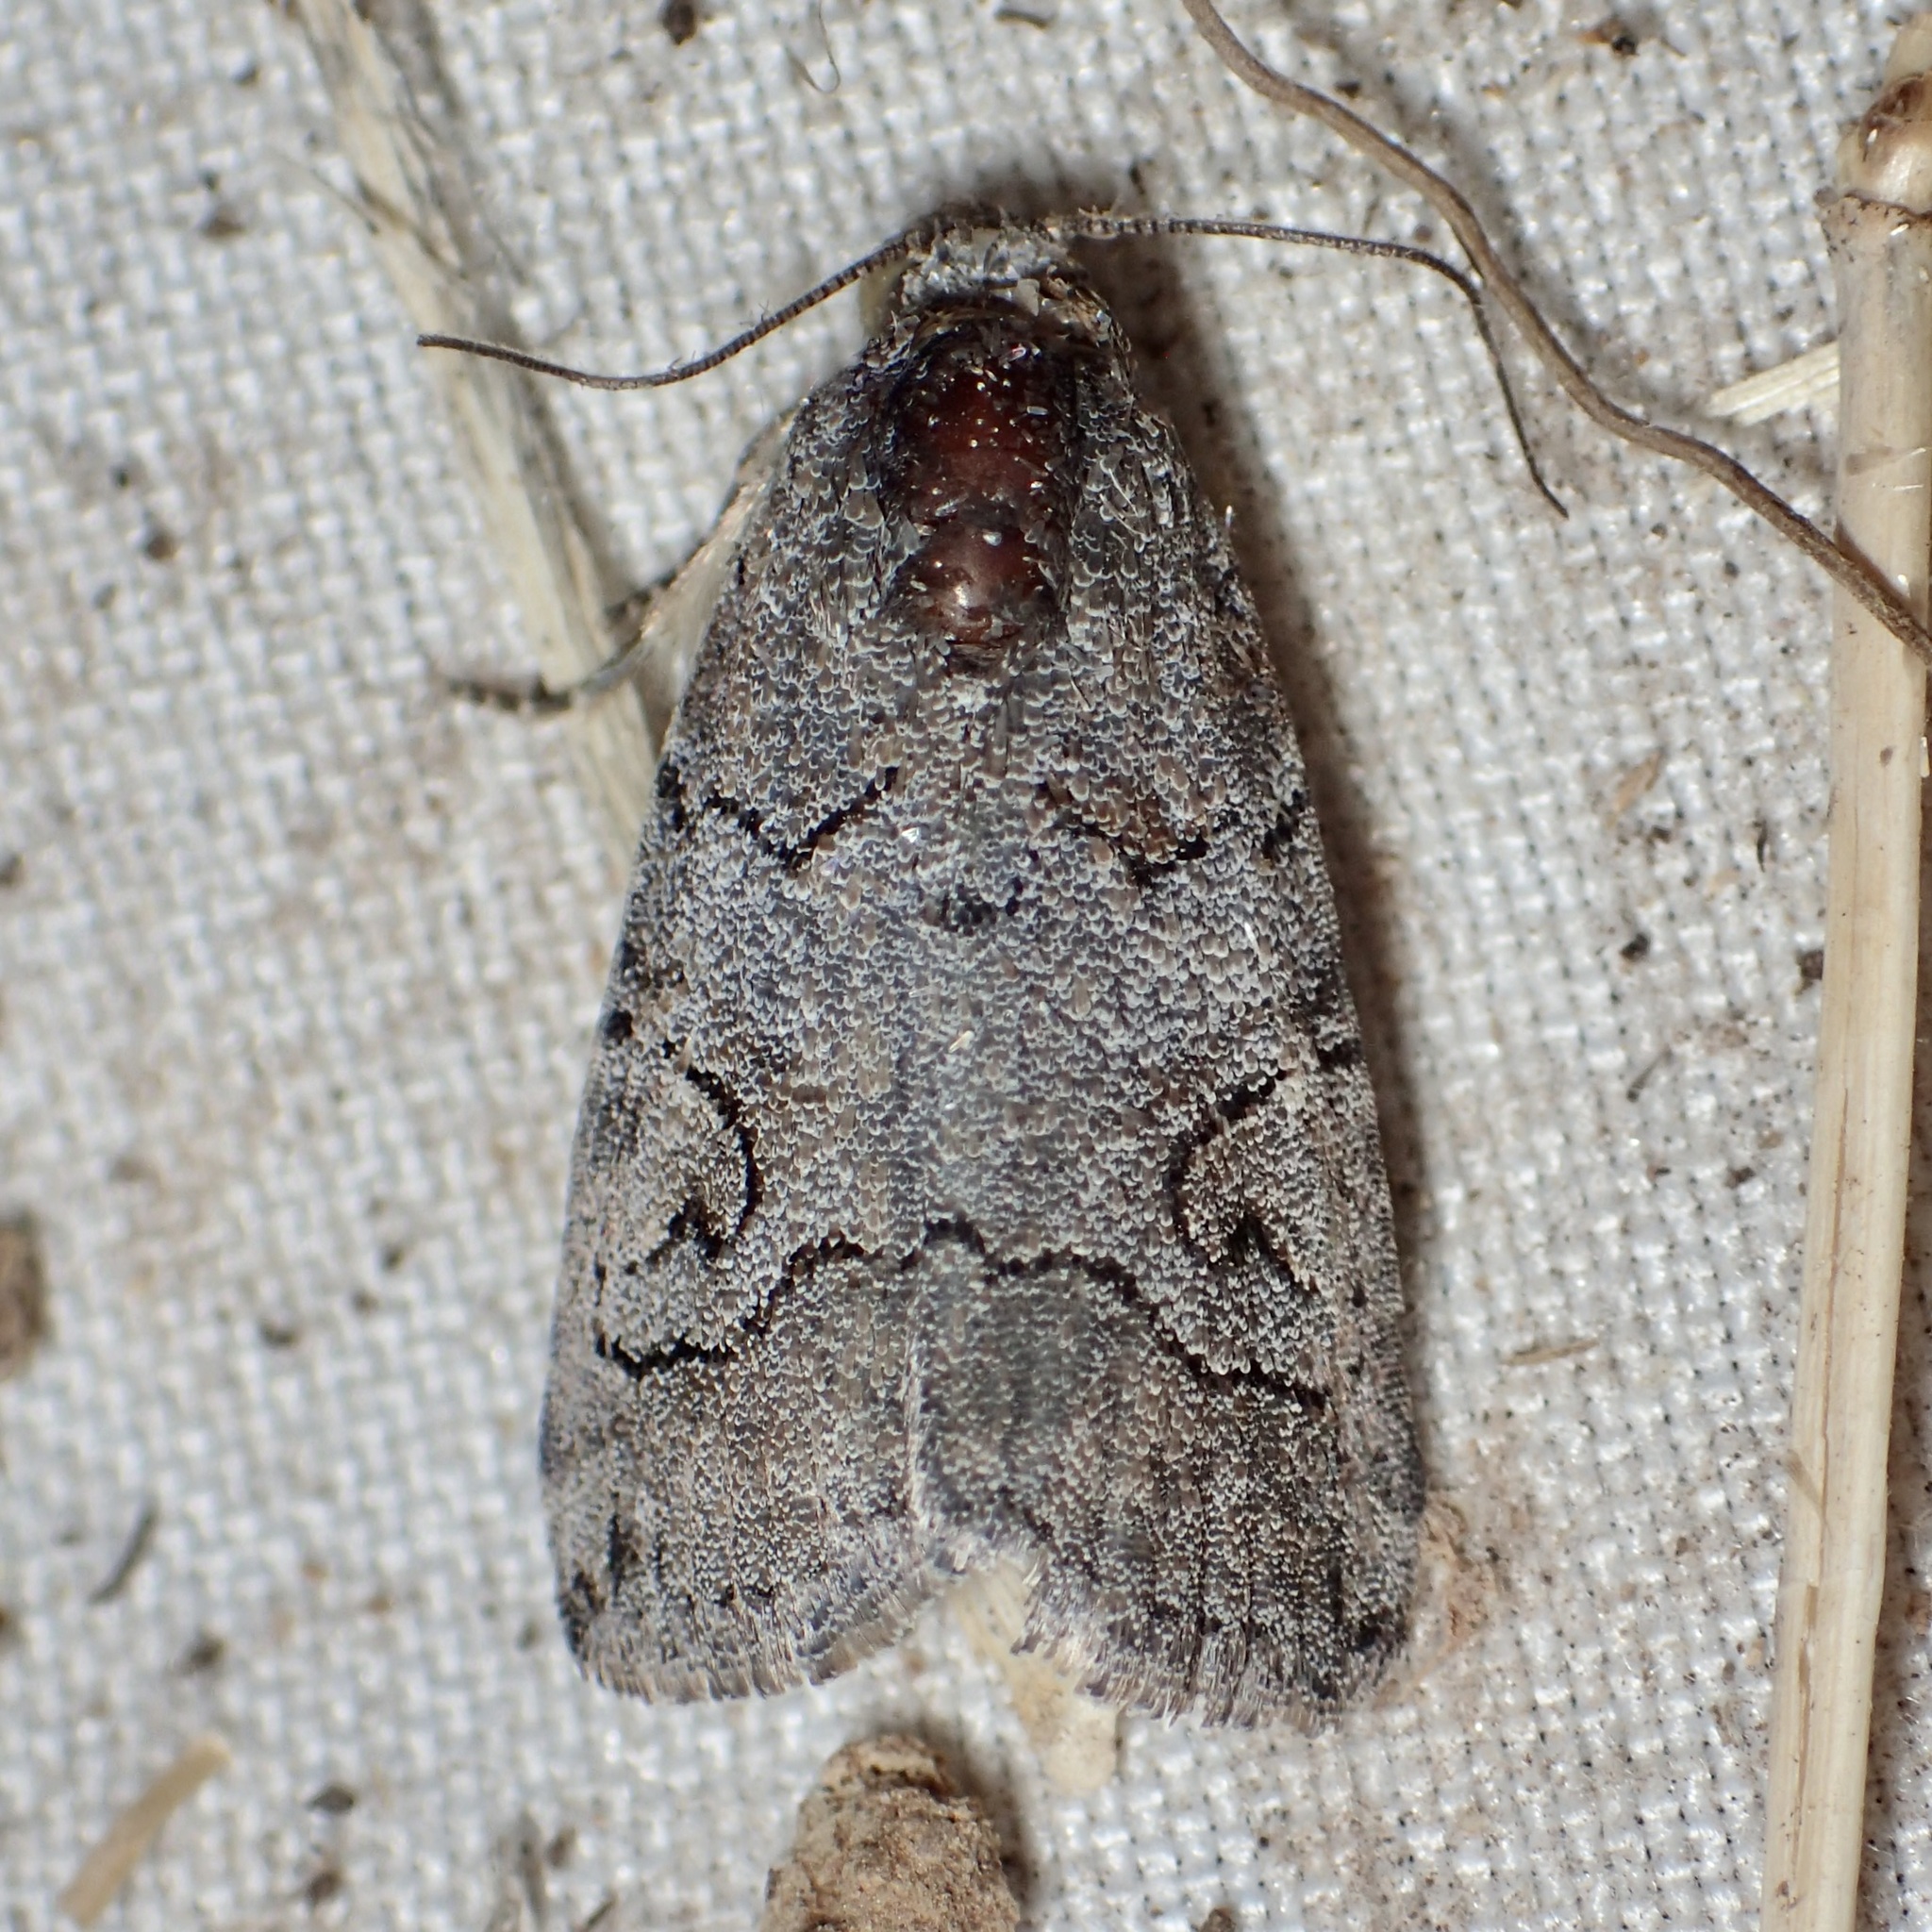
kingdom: Animalia
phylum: Arthropoda
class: Insecta
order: Lepidoptera
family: Noctuidae
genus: Metaponpneumata
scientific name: Metaponpneumata rogenhoferi
